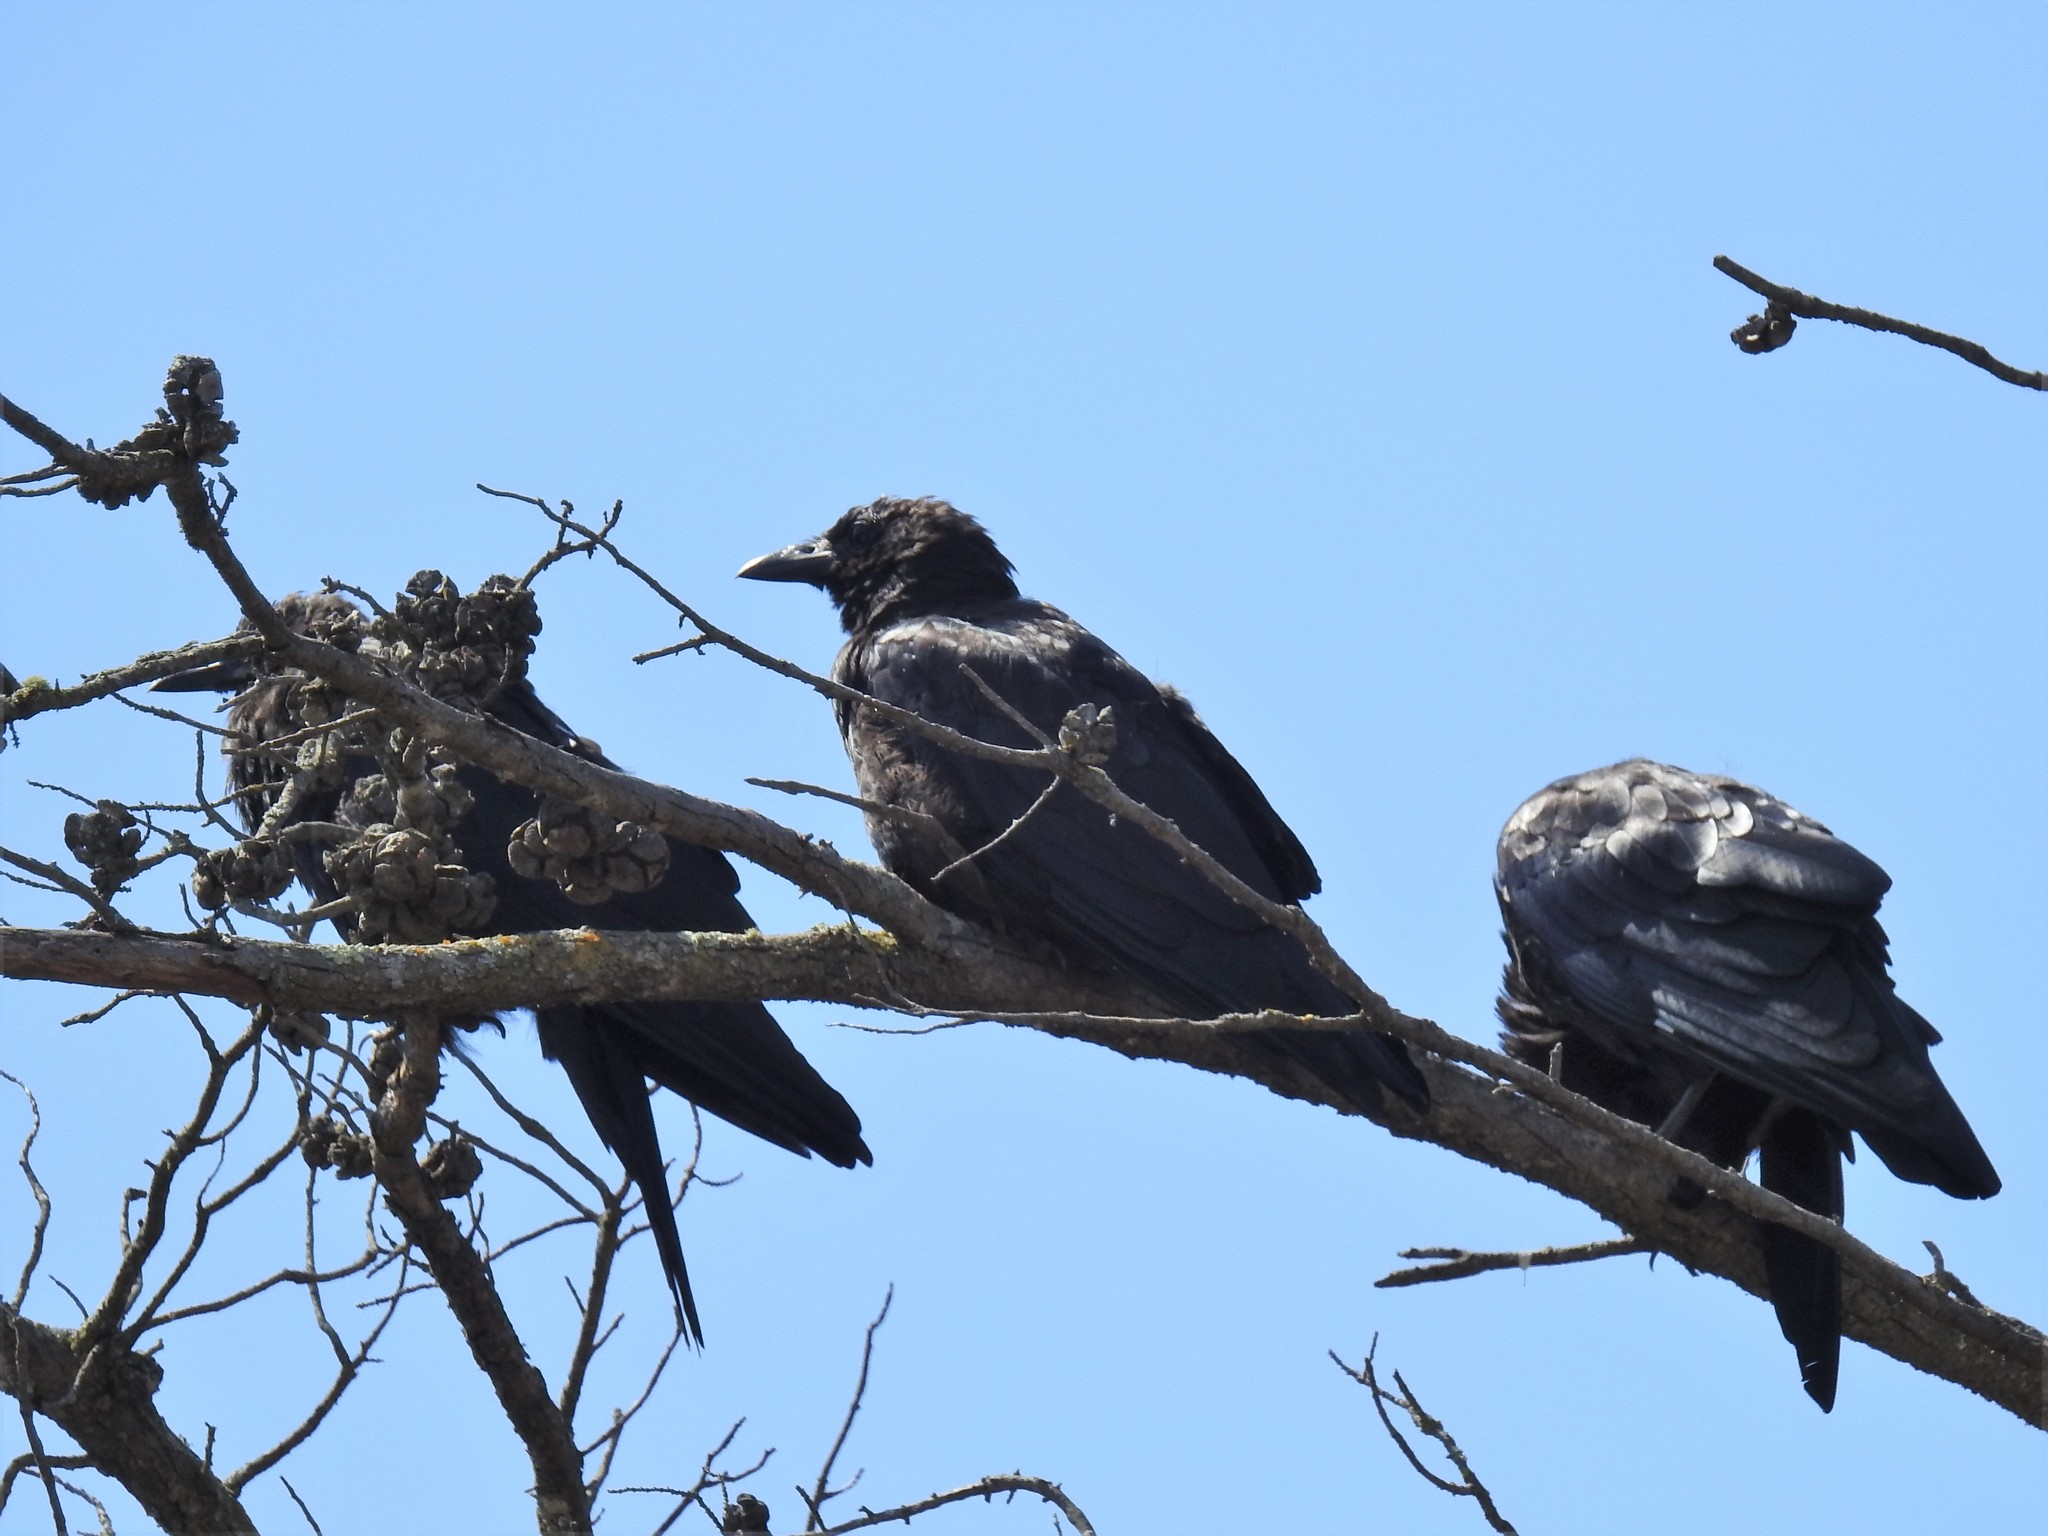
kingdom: Animalia
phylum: Chordata
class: Aves
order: Passeriformes
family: Corvidae
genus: Corvus
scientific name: Corvus brachyrhynchos
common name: American crow
